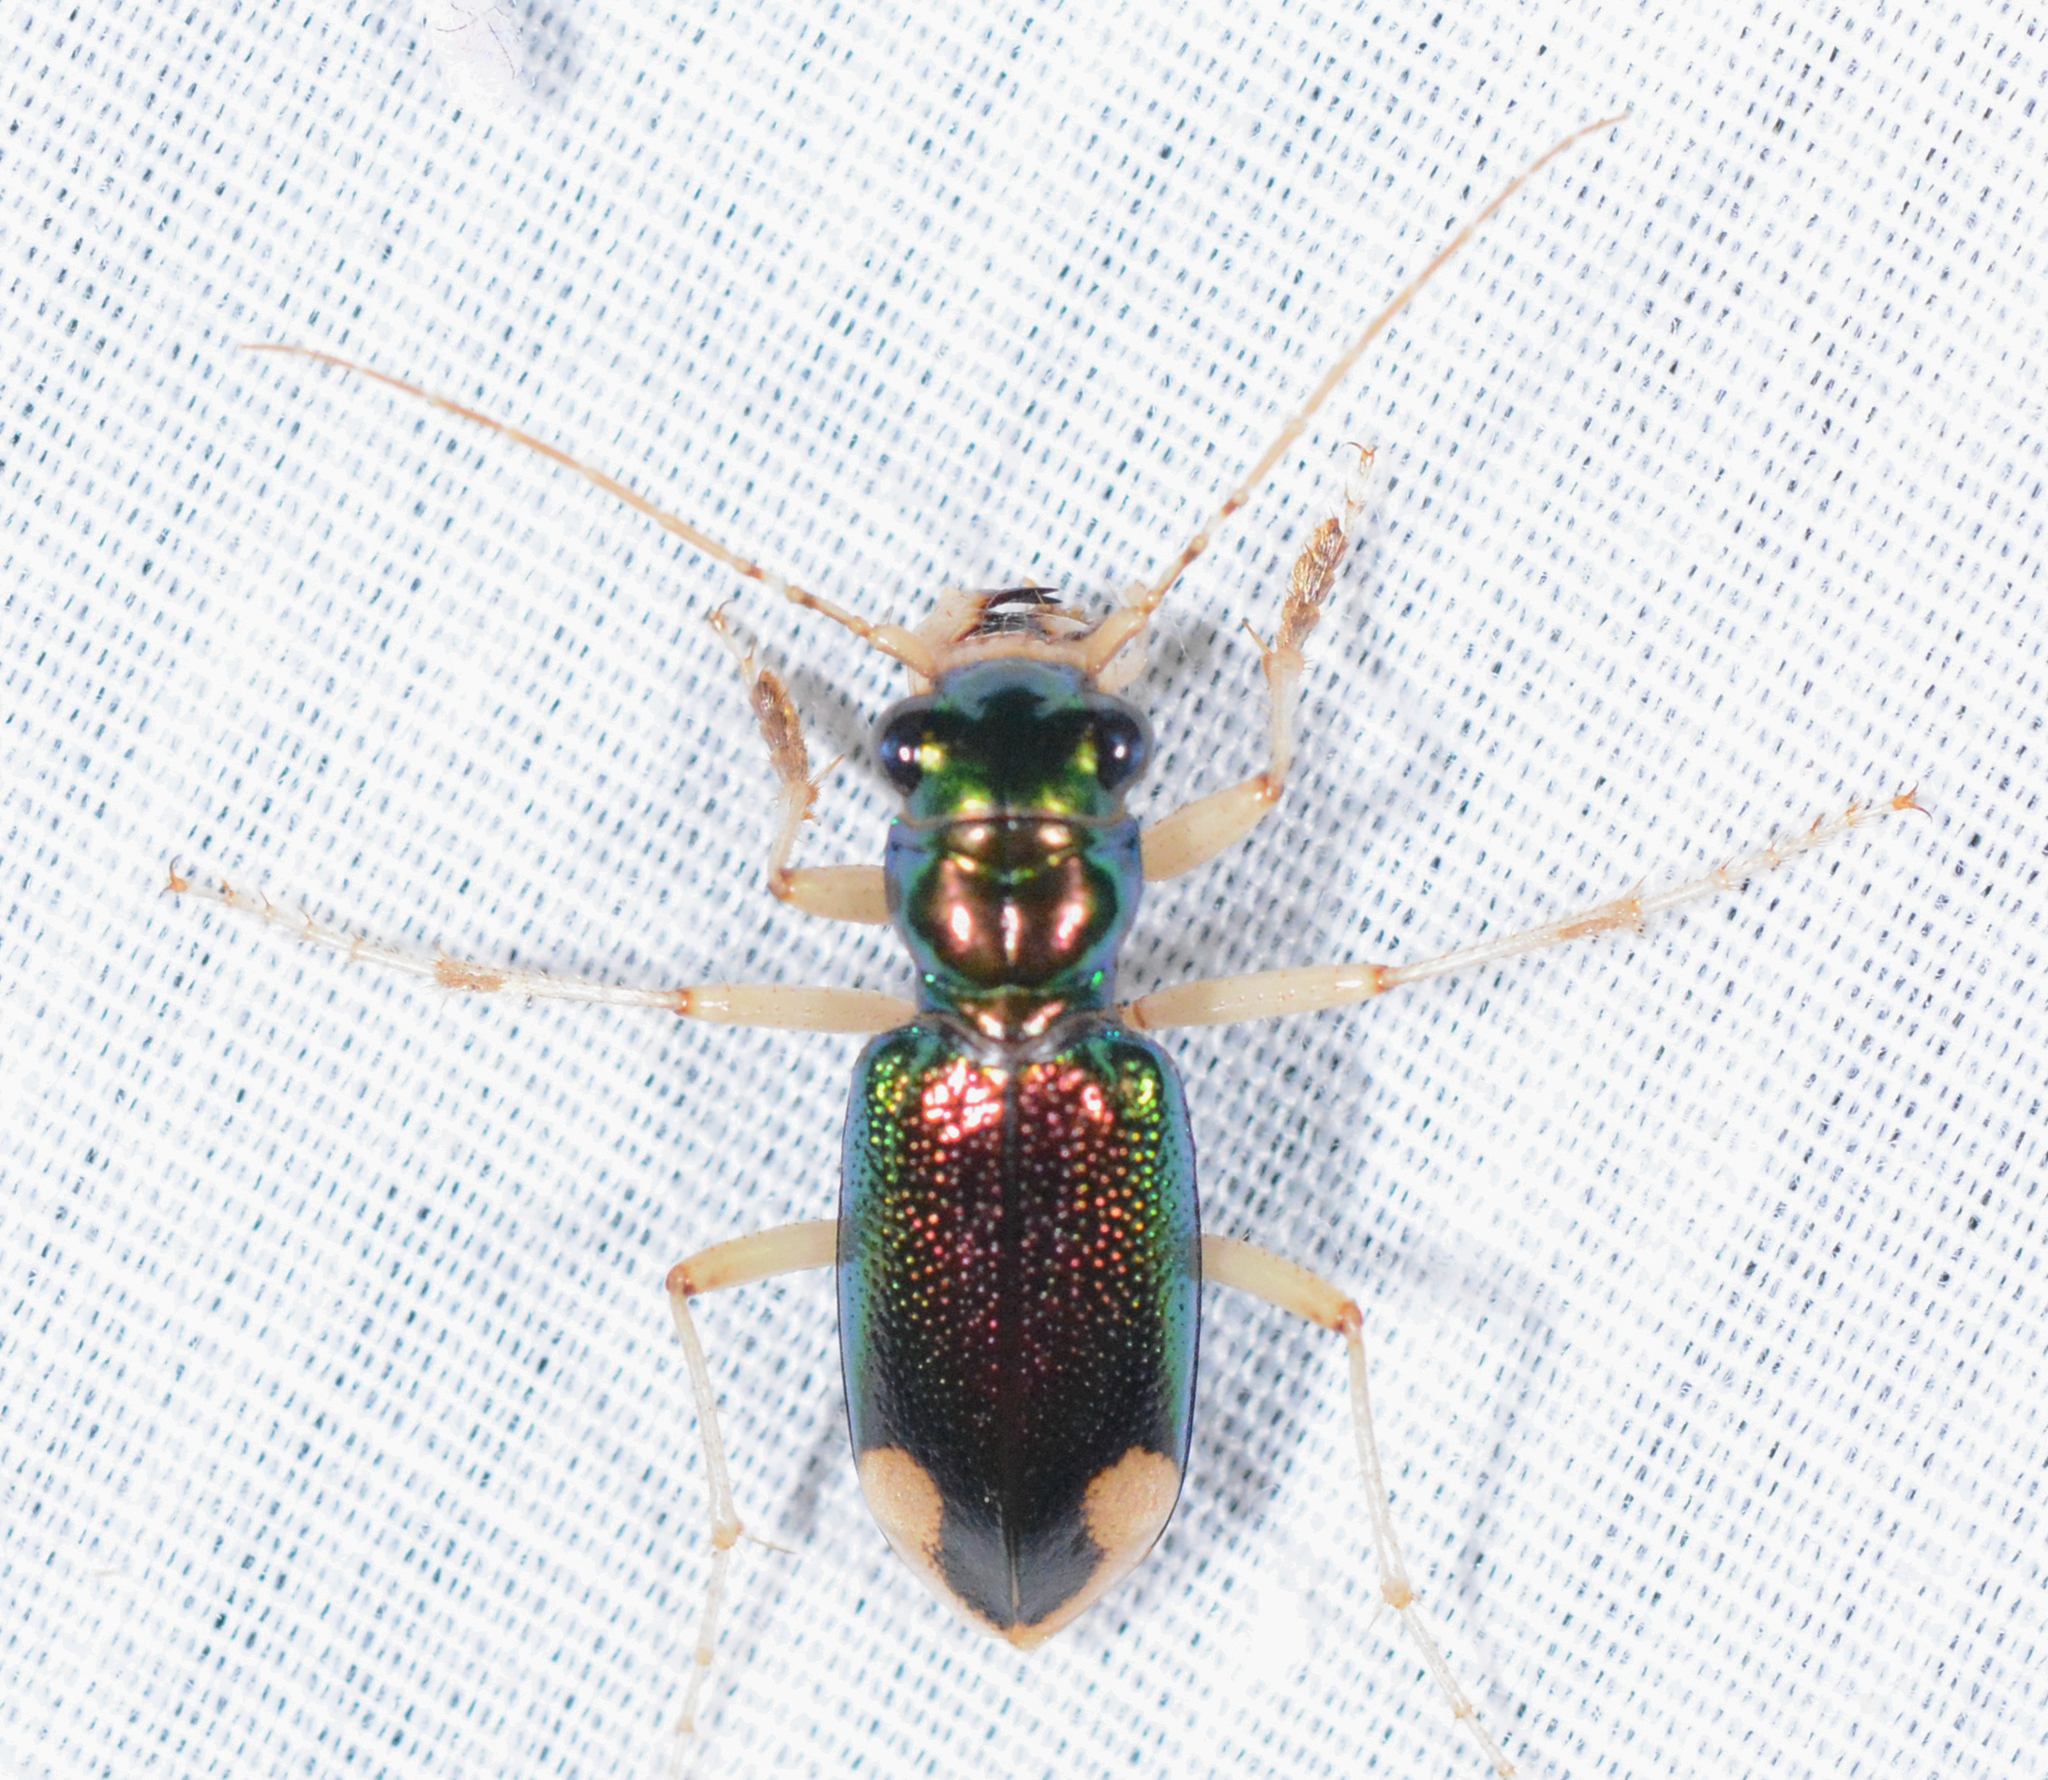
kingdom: Animalia
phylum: Arthropoda
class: Insecta
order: Coleoptera
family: Carabidae
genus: Tetracha
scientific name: Tetracha carolina
